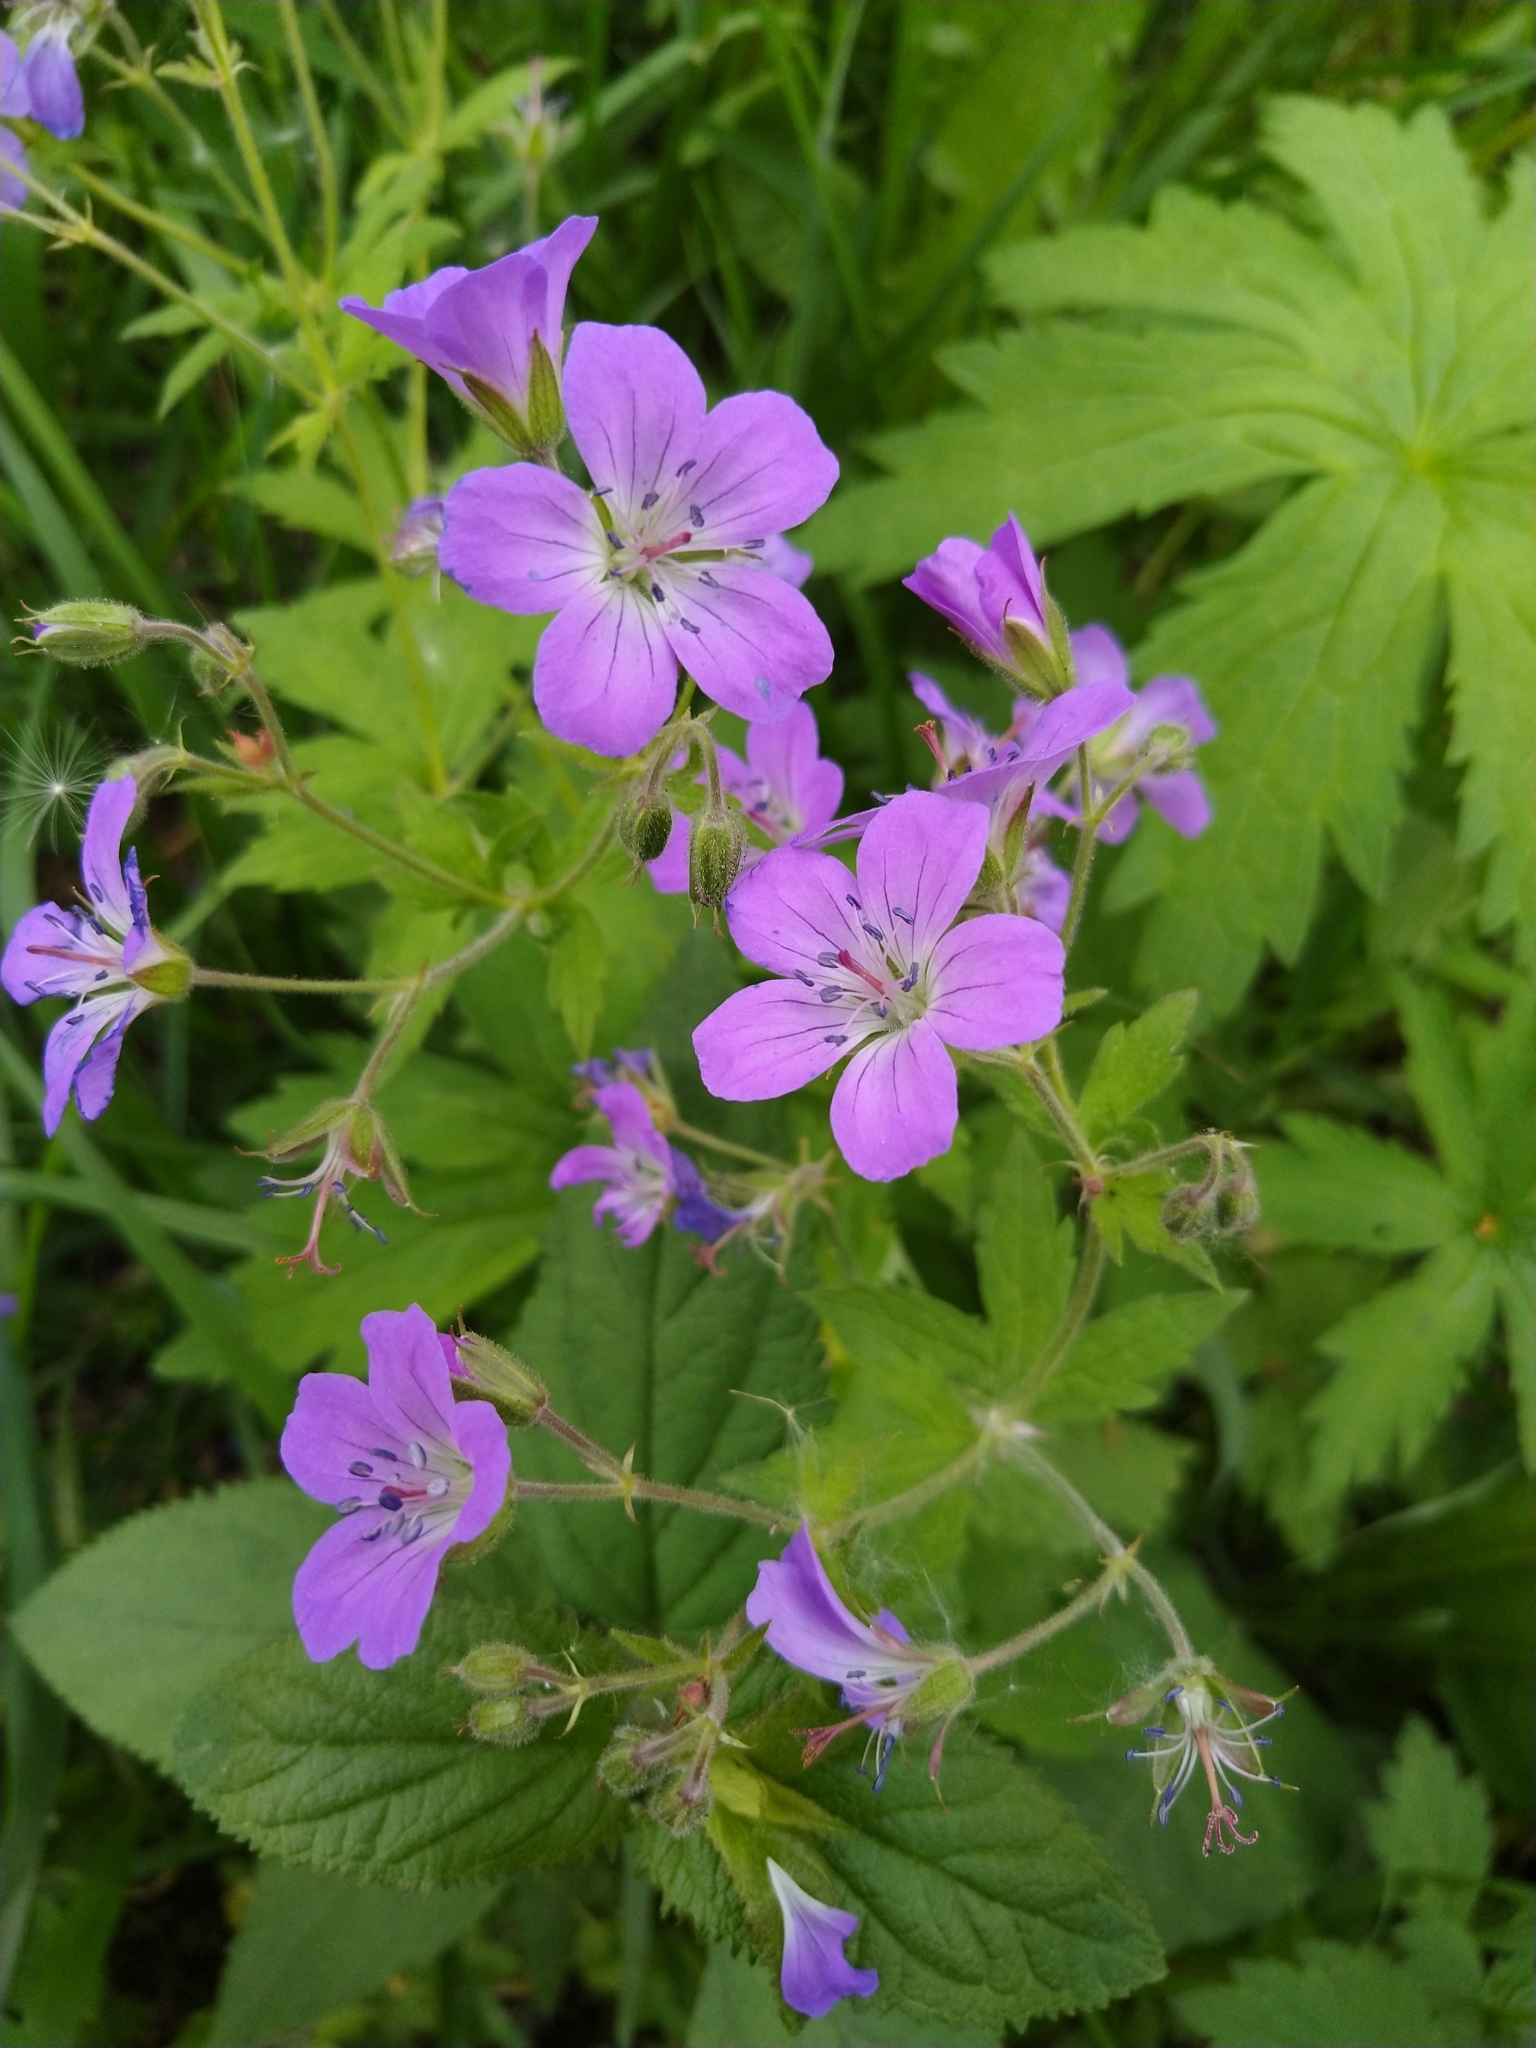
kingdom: Plantae
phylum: Tracheophyta
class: Magnoliopsida
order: Geraniales
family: Geraniaceae
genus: Geranium
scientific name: Geranium sylvaticum
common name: Wood crane's-bill
